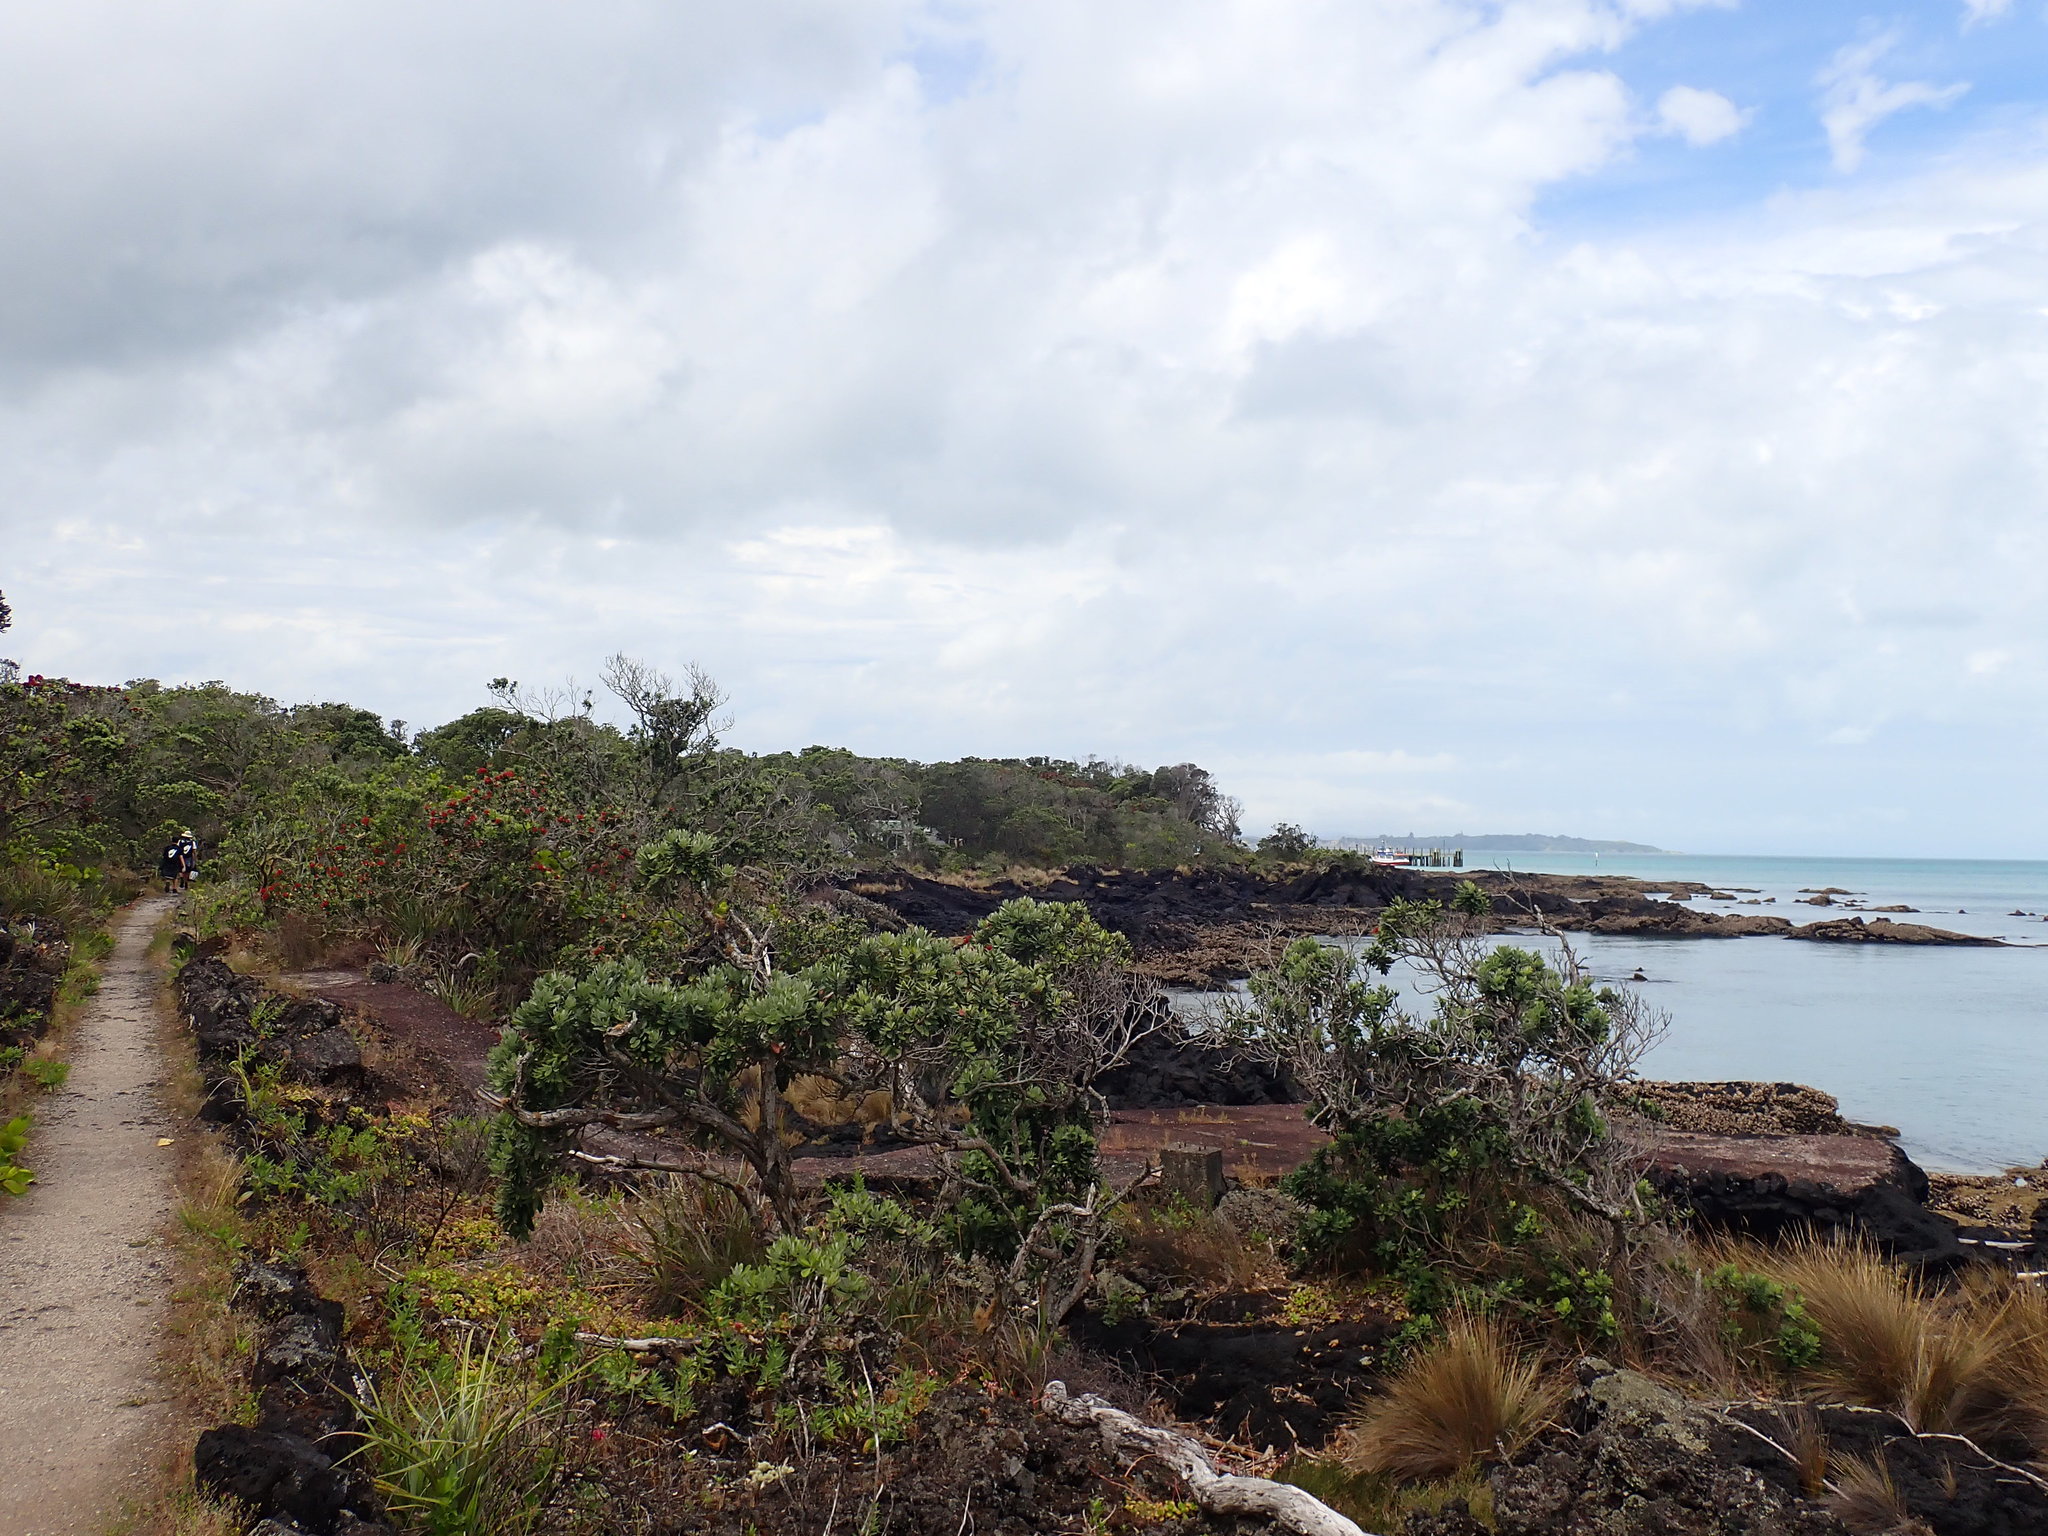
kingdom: Plantae
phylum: Tracheophyta
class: Magnoliopsida
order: Myrtales
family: Myrtaceae
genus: Metrosideros
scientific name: Metrosideros excelsa
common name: New zealand christmastree
